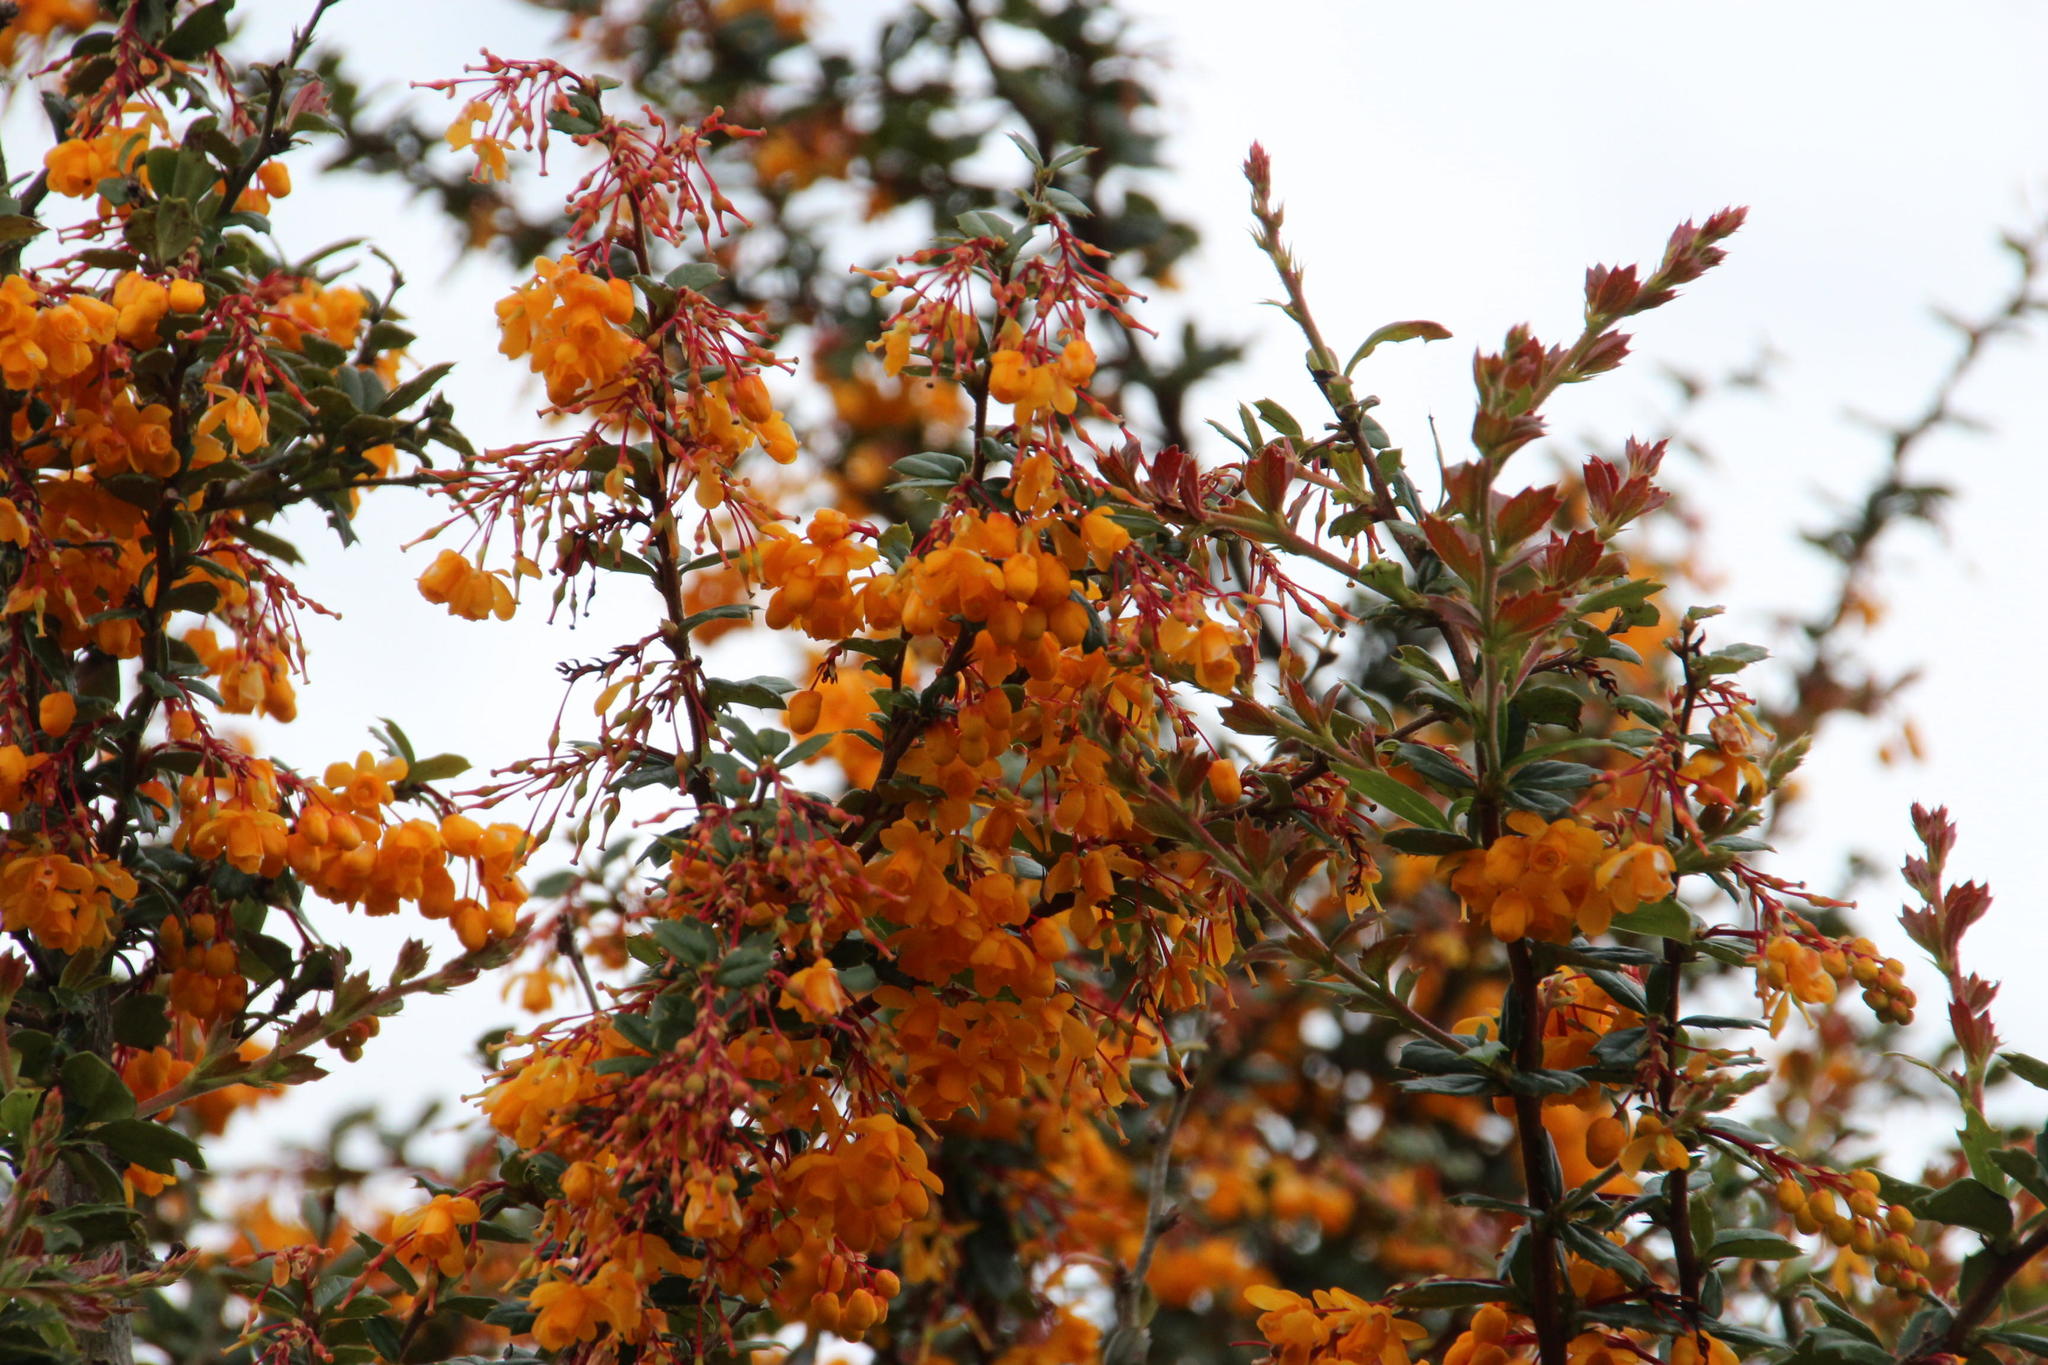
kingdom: Plantae
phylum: Tracheophyta
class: Magnoliopsida
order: Ranunculales
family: Berberidaceae
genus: Berberis
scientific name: Berberis darwinii
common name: Darwin's barberry
